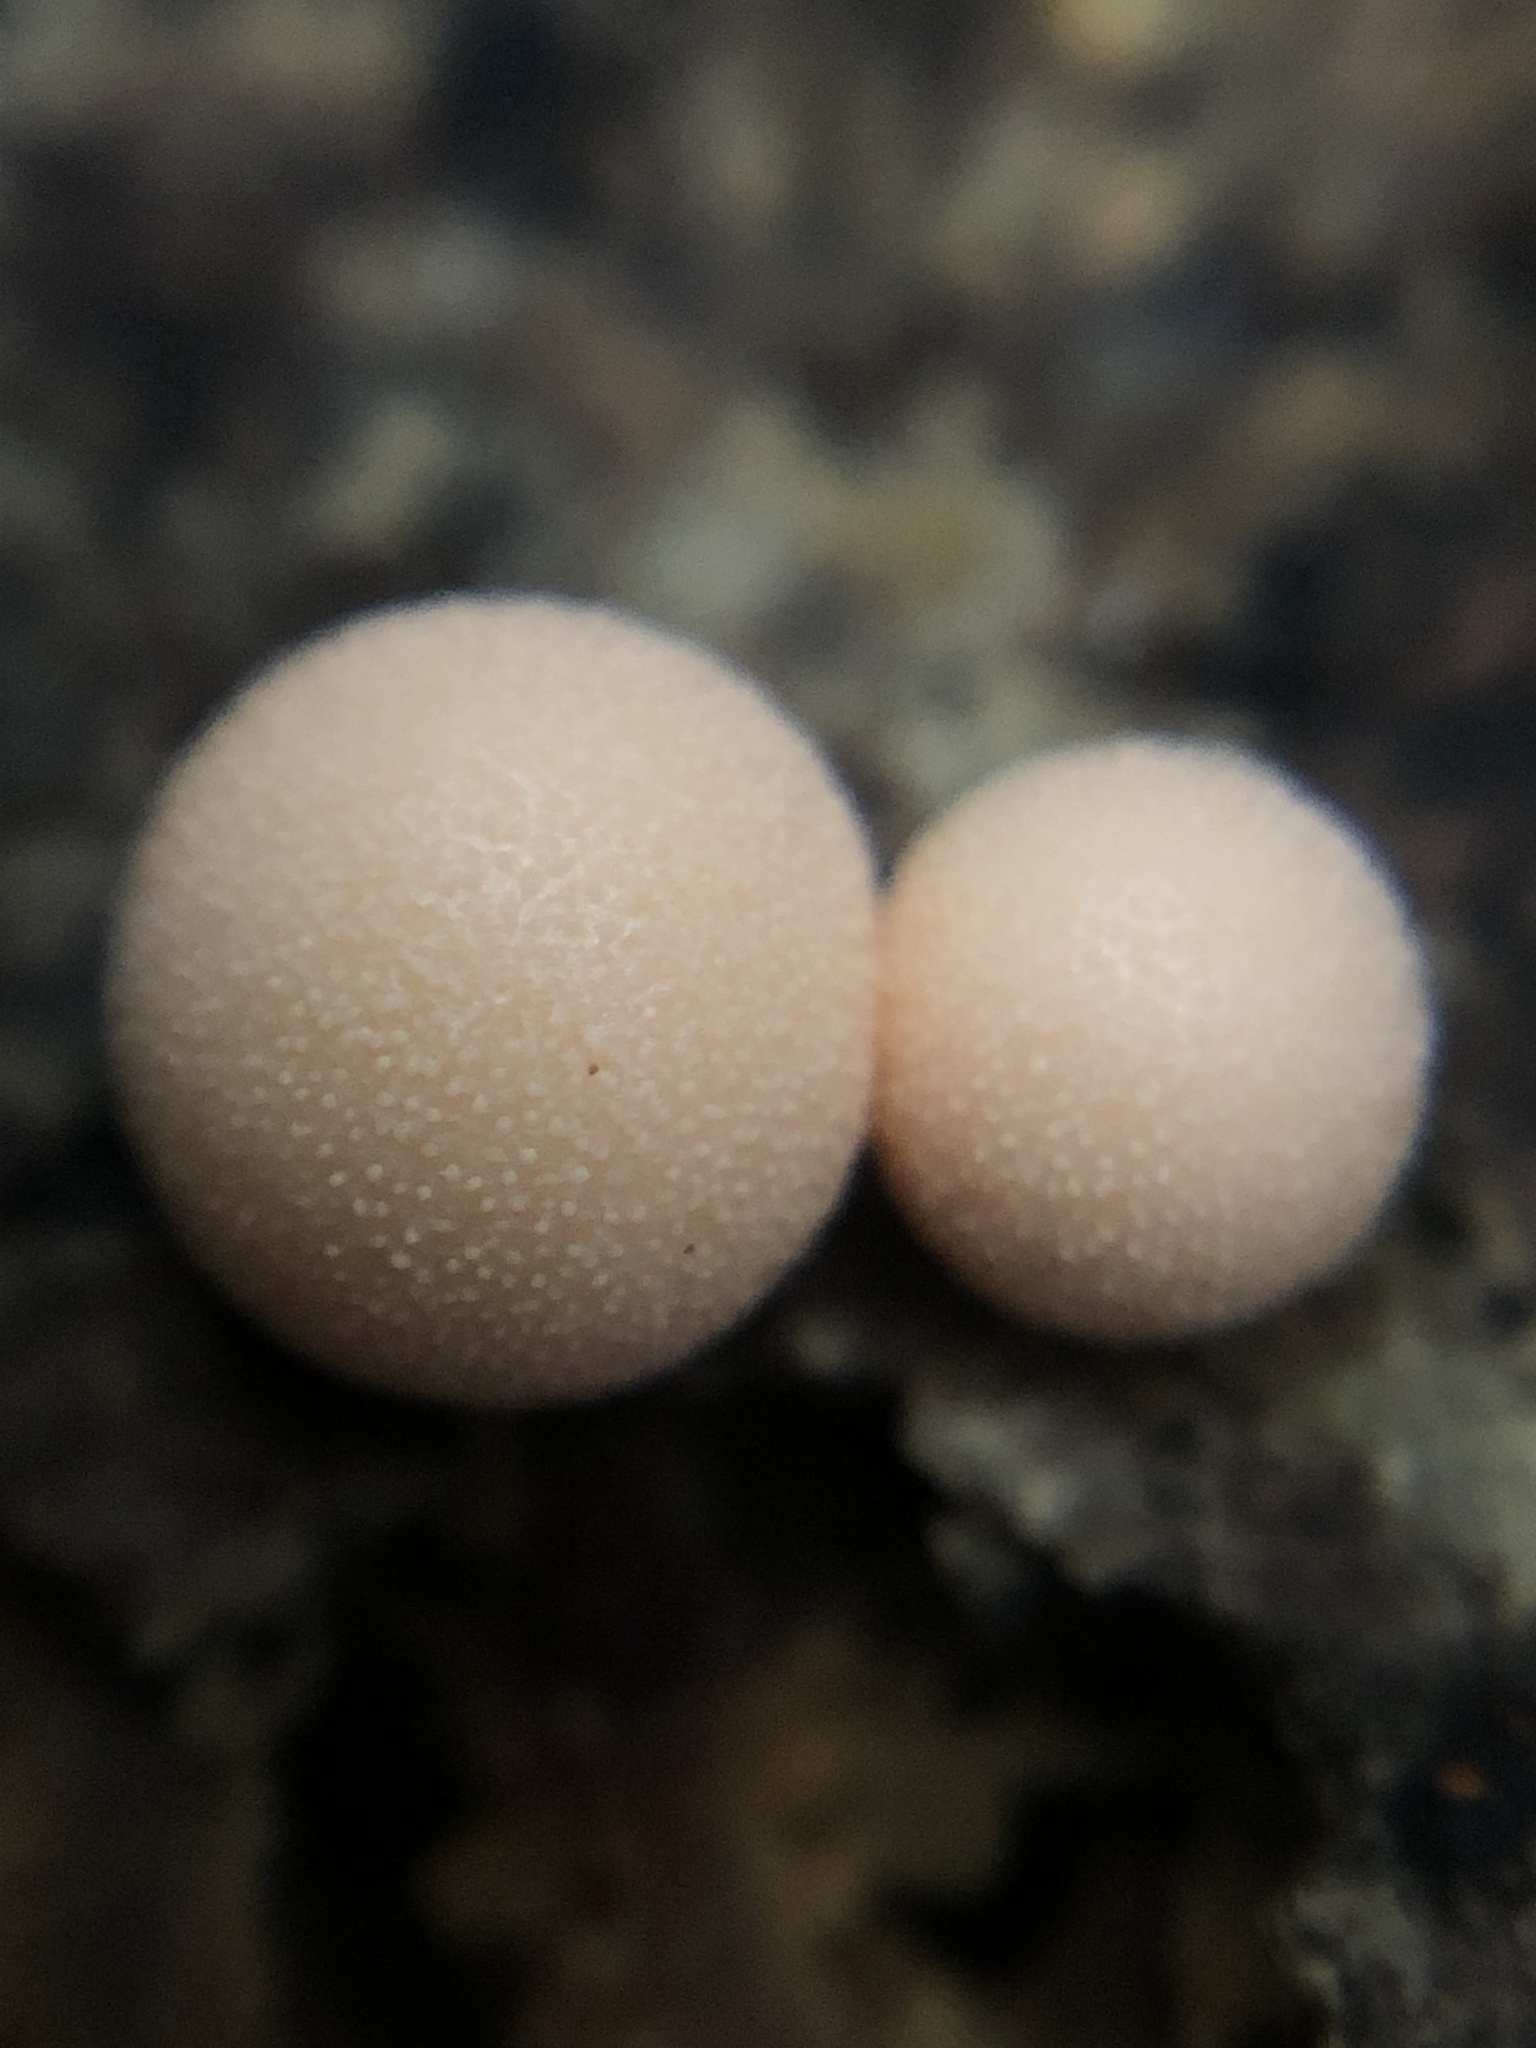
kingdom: Protozoa
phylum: Mycetozoa
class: Myxomycetes
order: Cribrariales
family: Tubiferaceae
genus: Lycogala
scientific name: Lycogala epidendrum
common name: Wolf's milk
